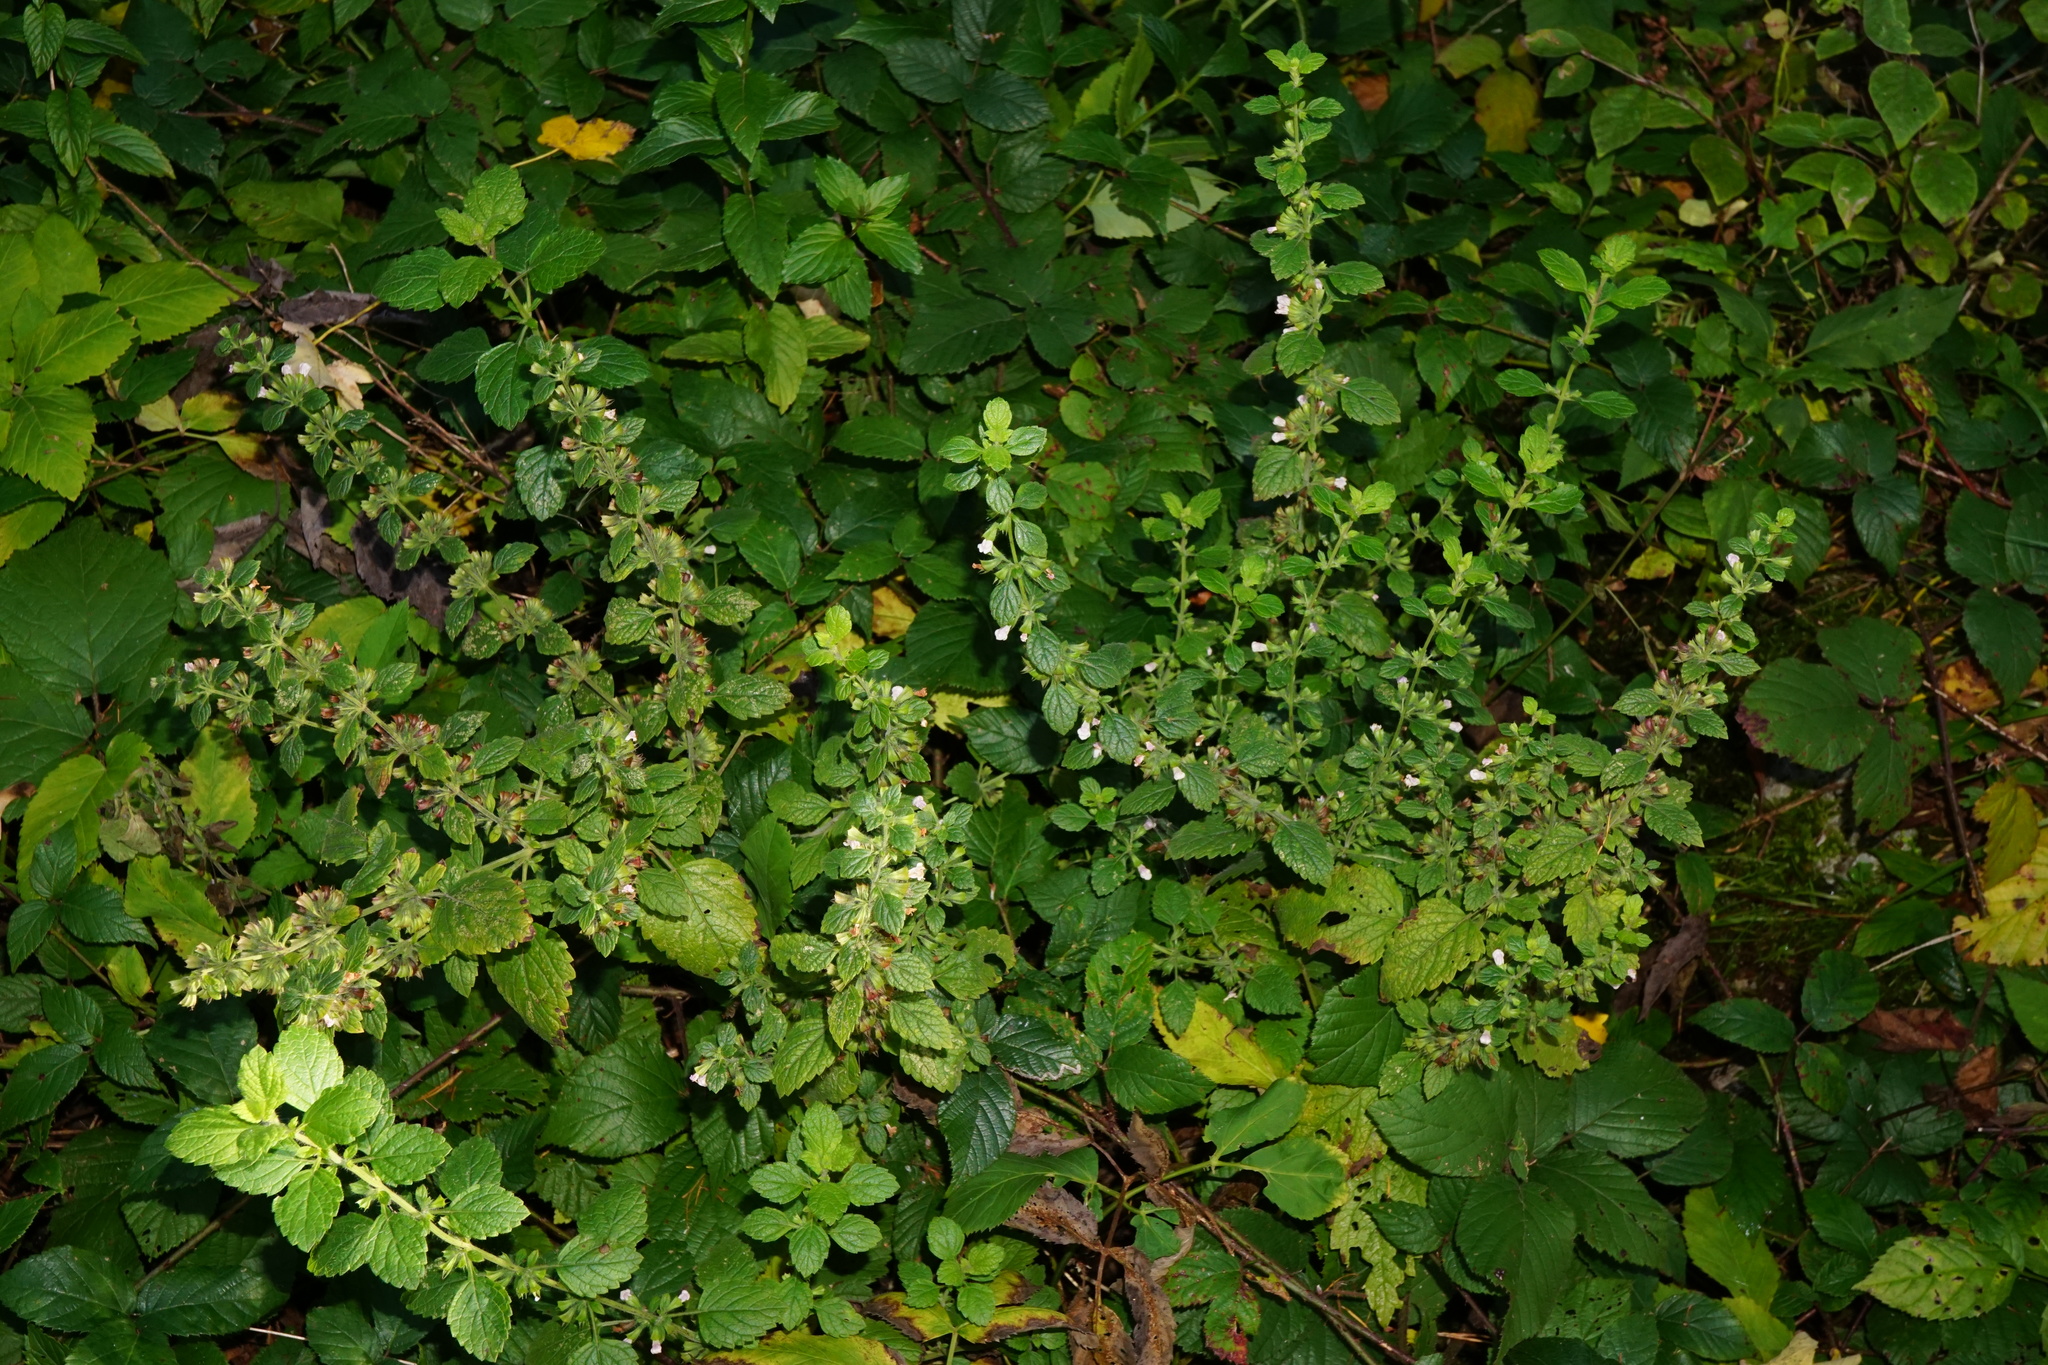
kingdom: Plantae
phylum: Tracheophyta
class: Magnoliopsida
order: Lamiales
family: Lamiaceae
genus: Melissa
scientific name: Melissa officinalis
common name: Balm
